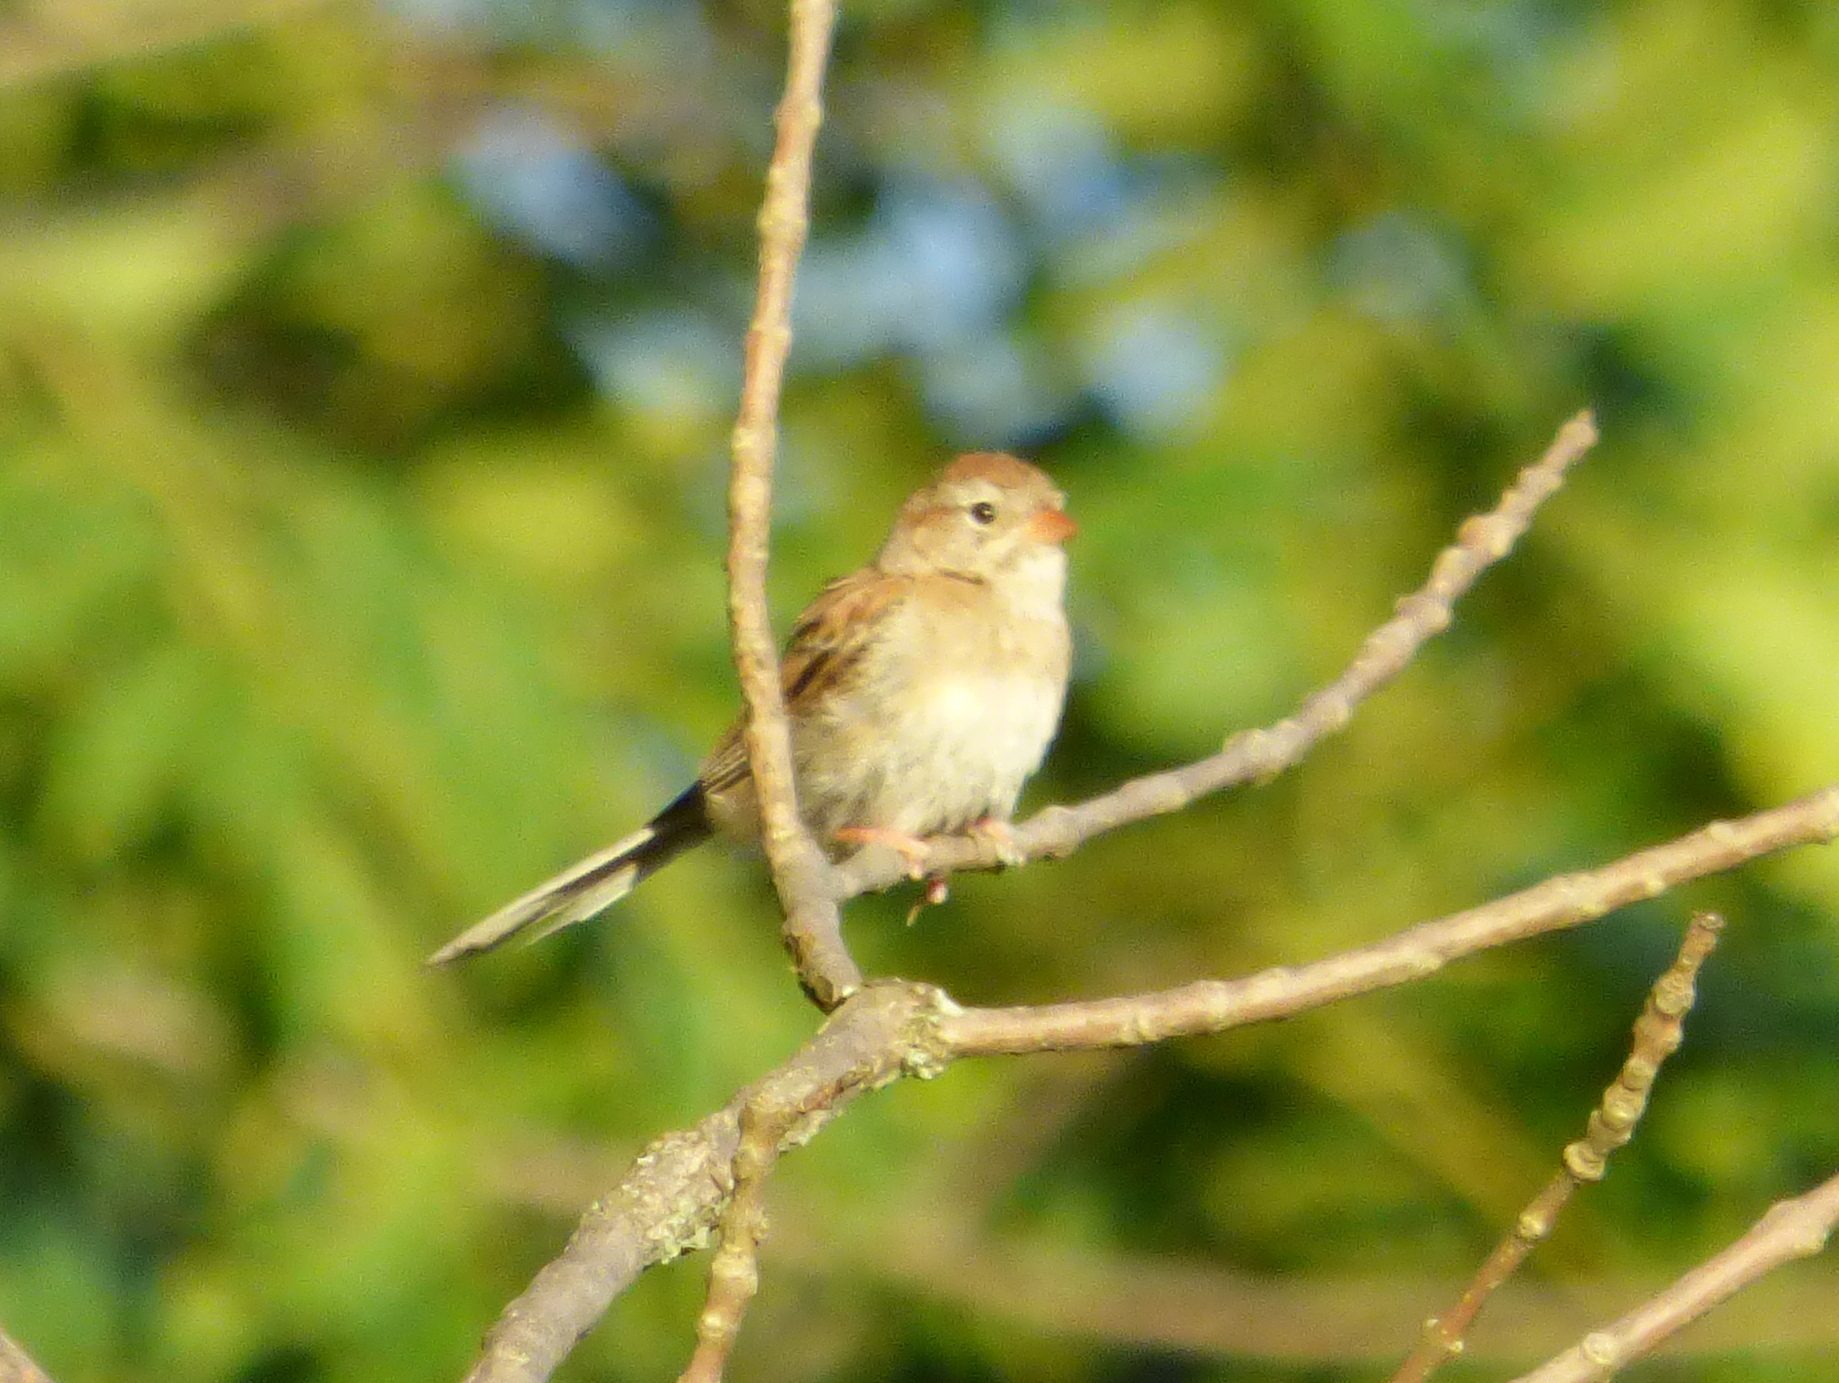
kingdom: Animalia
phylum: Chordata
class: Aves
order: Passeriformes
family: Passerellidae
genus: Spizella
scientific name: Spizella pusilla
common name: Field sparrow
